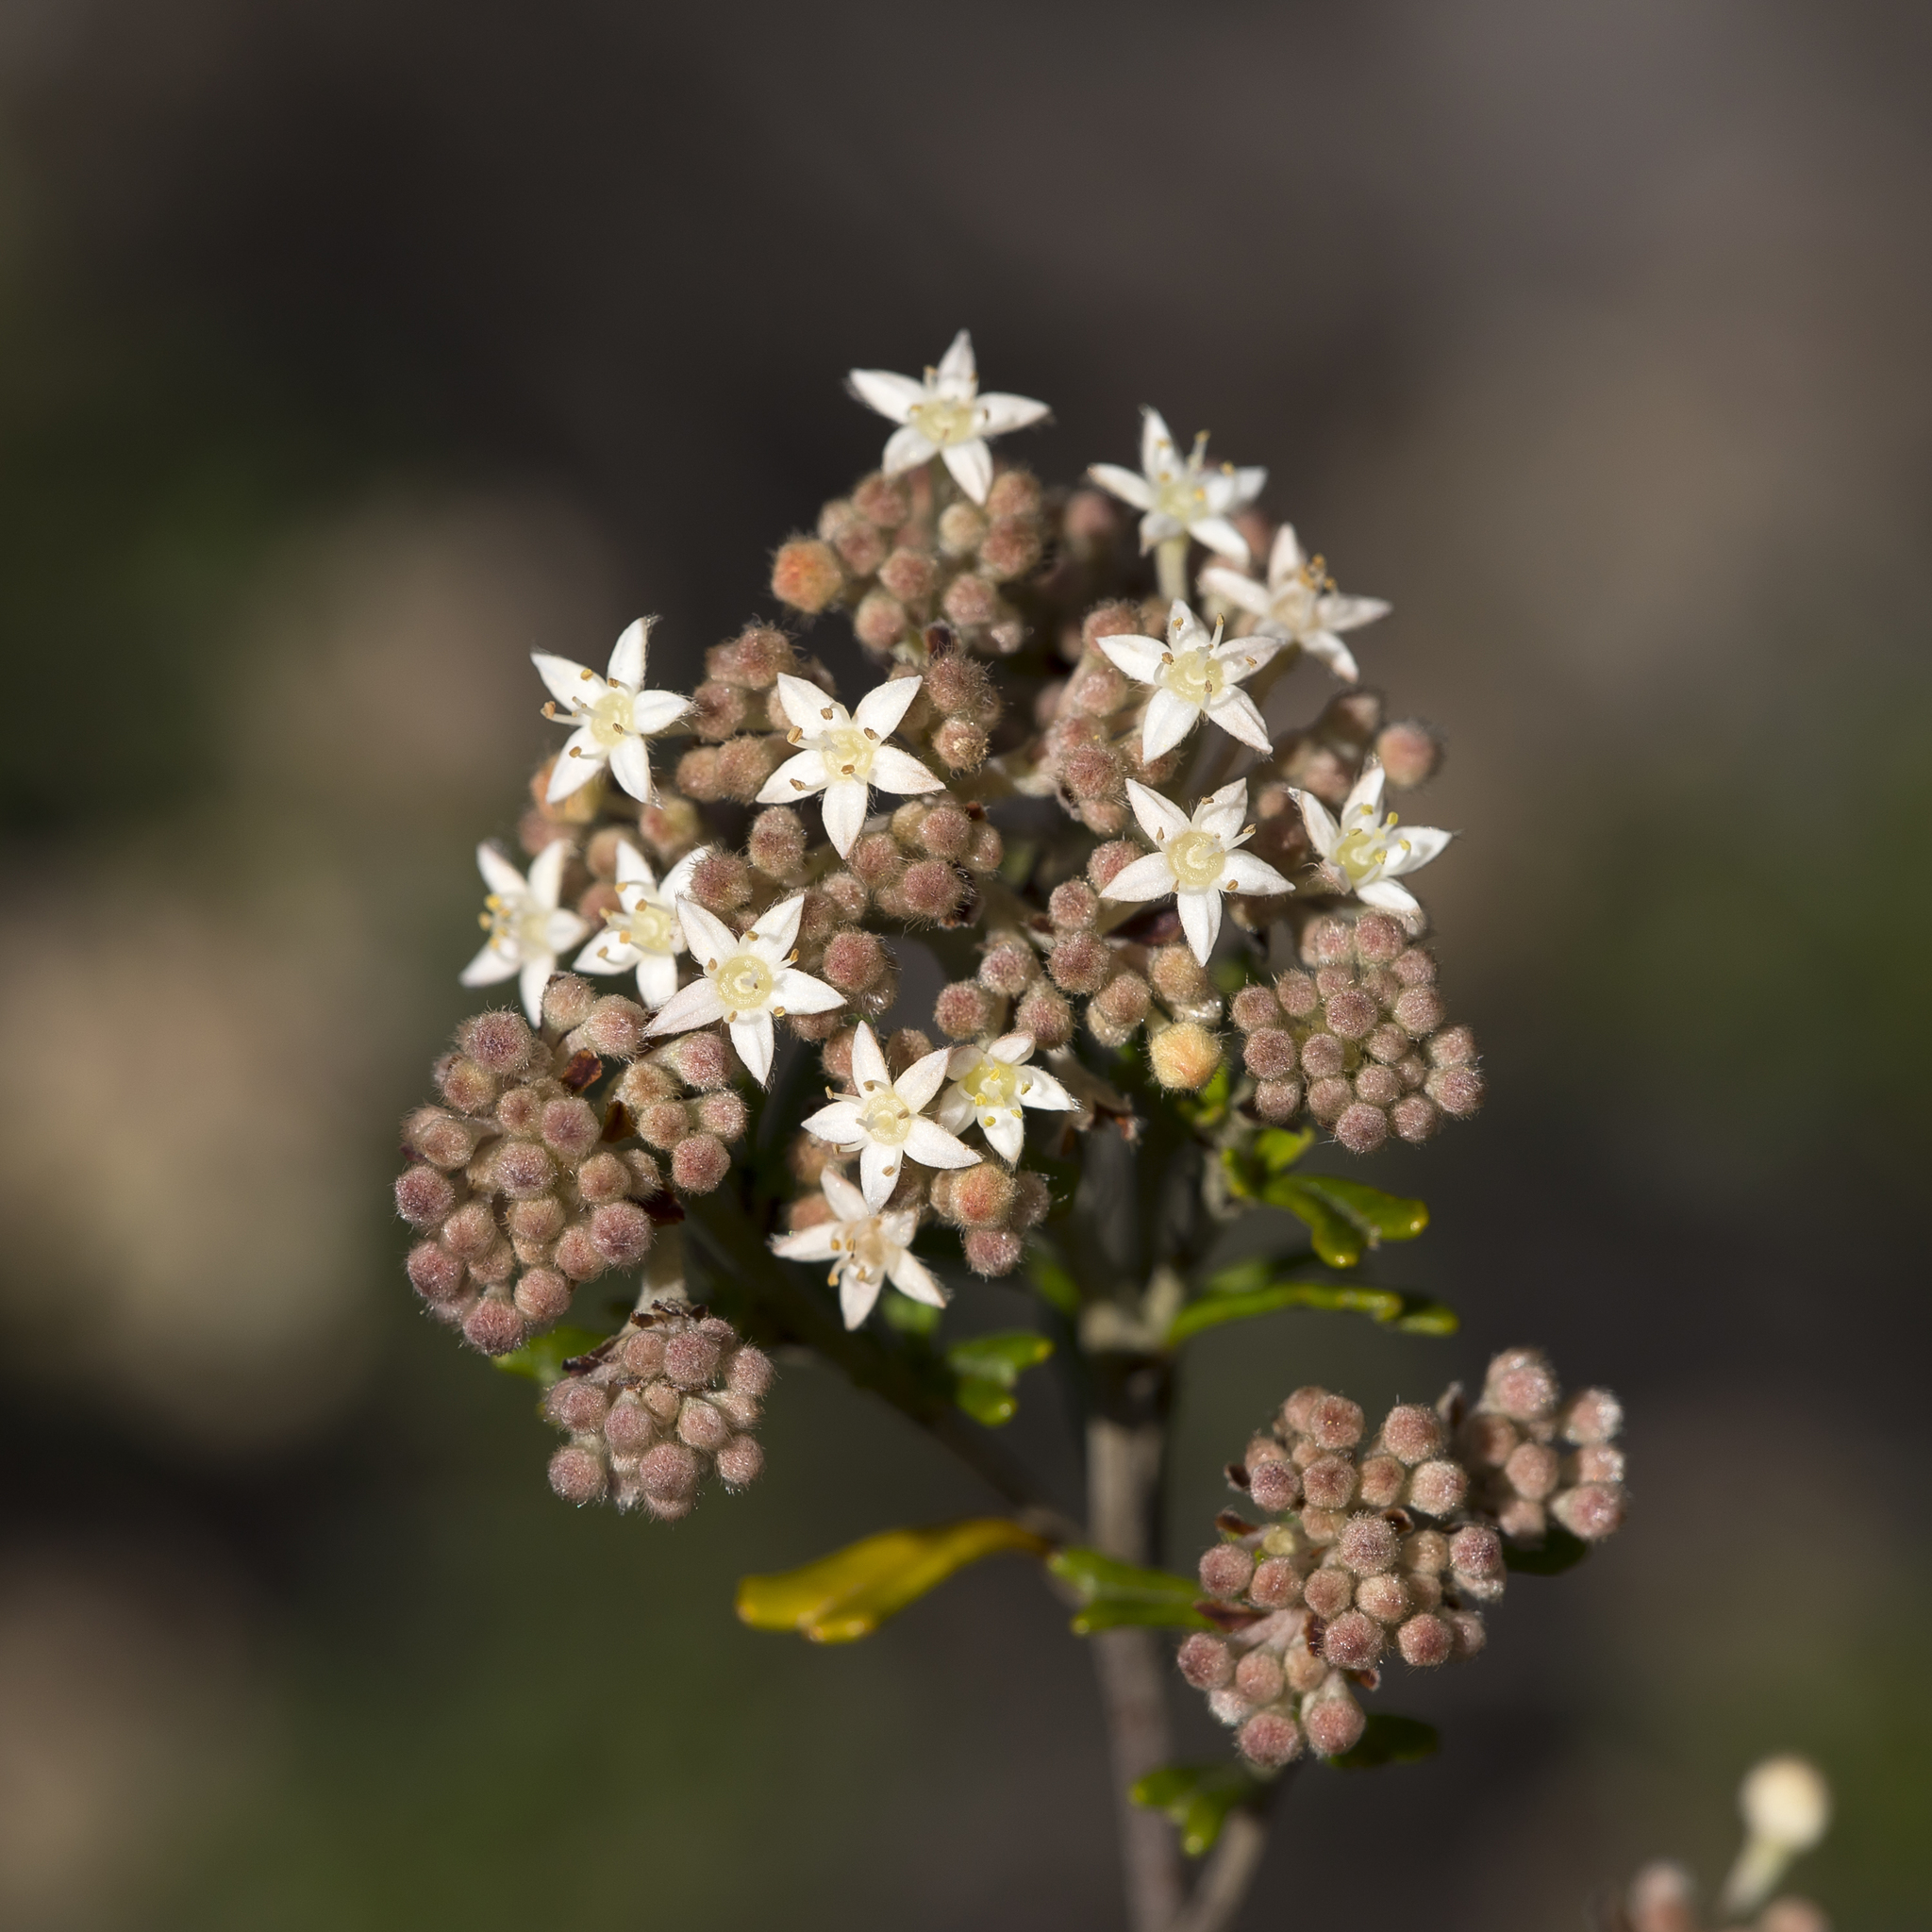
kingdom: Plantae
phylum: Tracheophyta
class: Magnoliopsida
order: Rosales
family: Rhamnaceae
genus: Pomaderris
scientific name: Pomaderris obcordata
